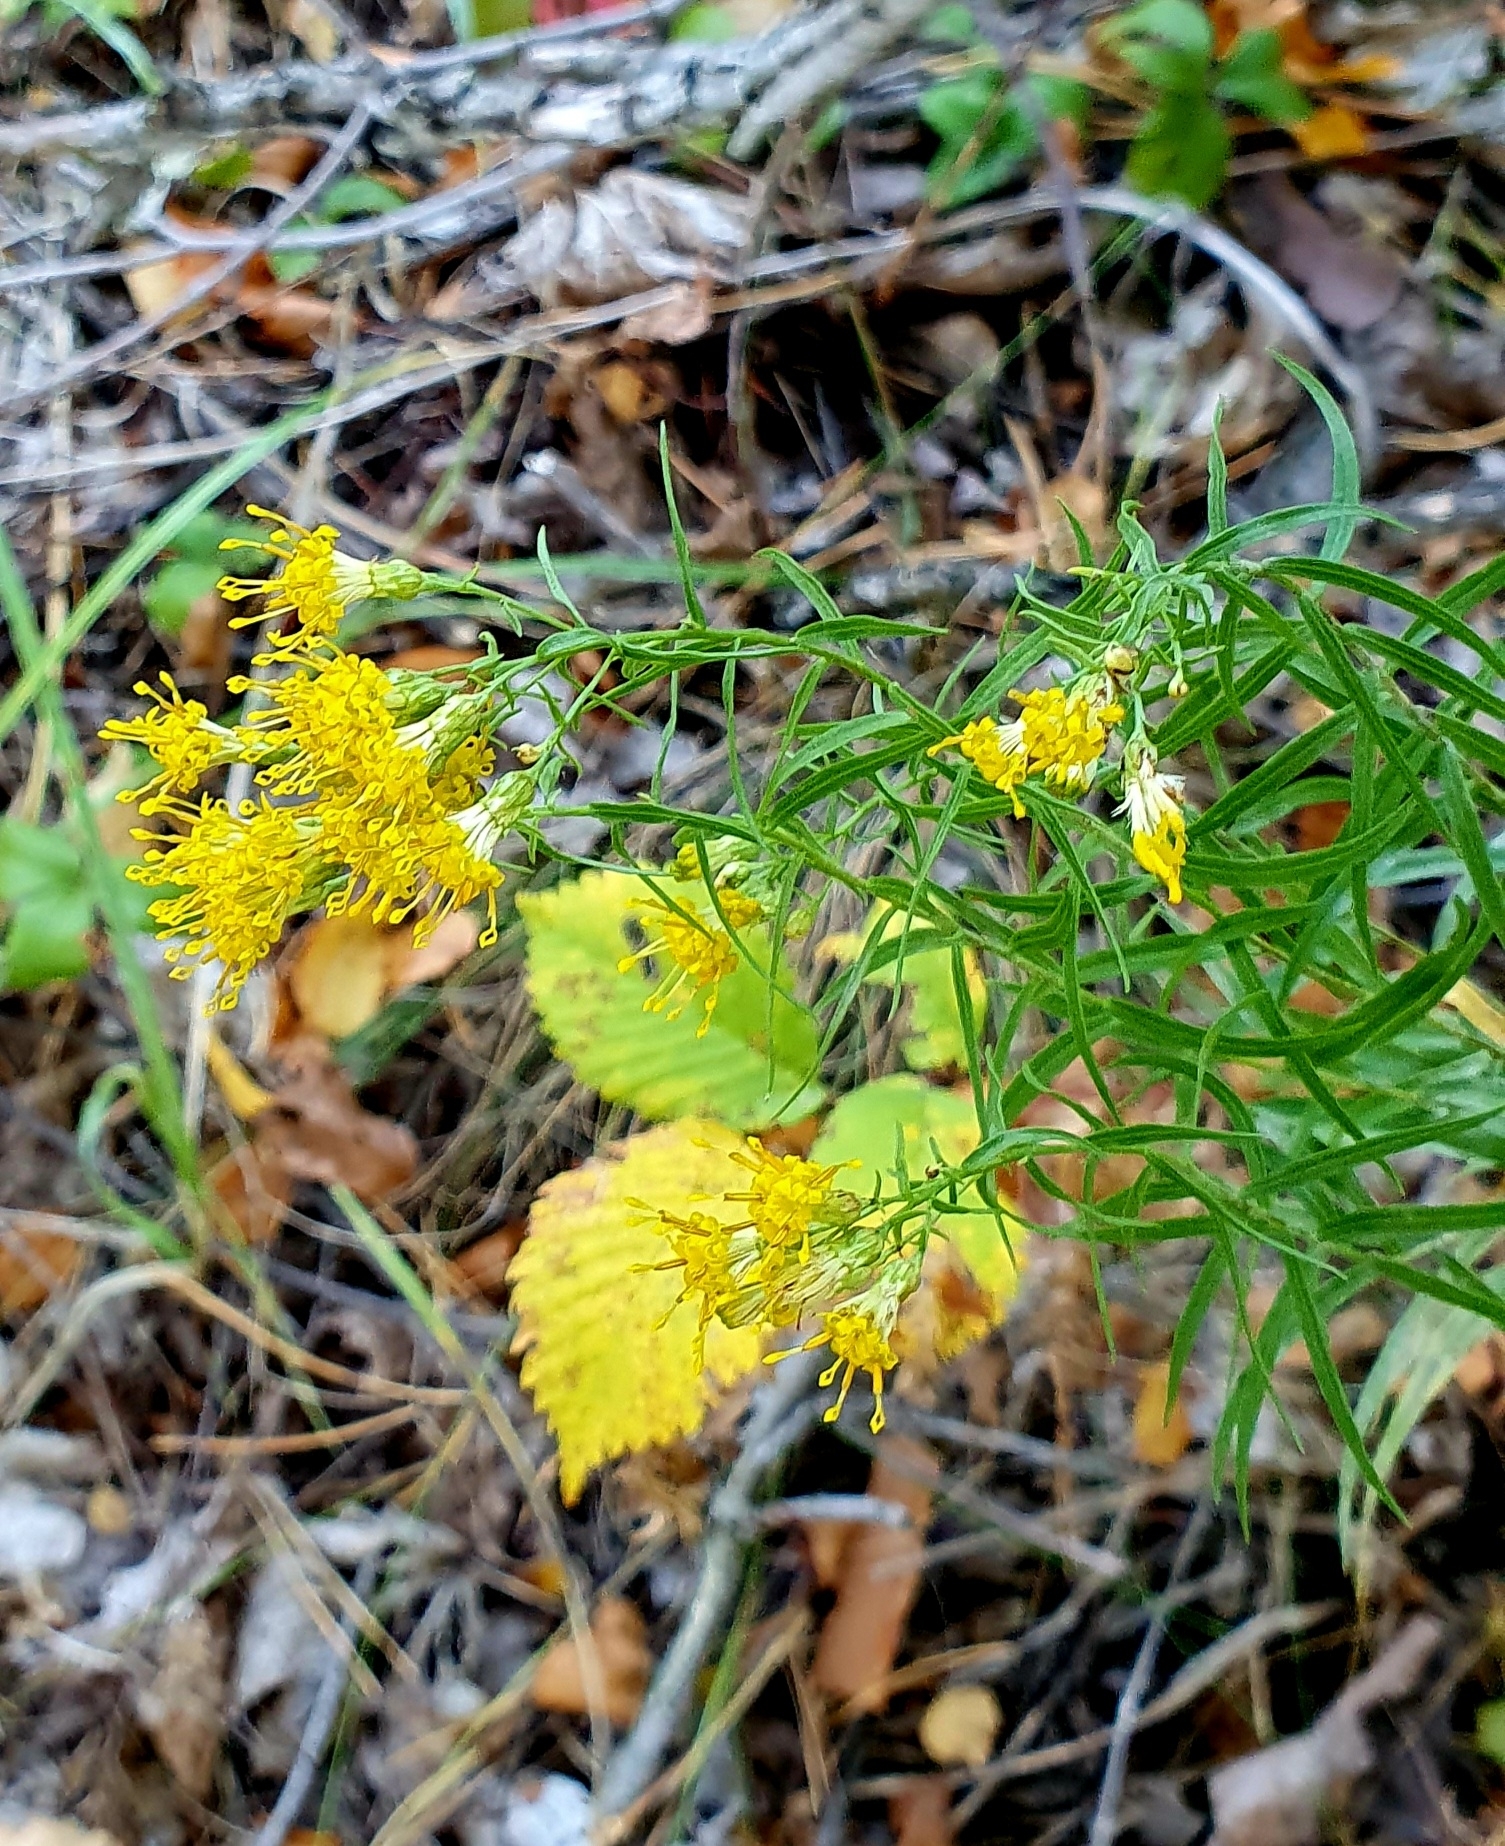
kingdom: Plantae
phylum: Tracheophyta
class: Magnoliopsida
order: Asterales
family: Asteraceae
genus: Galatella
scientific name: Galatella biflora
